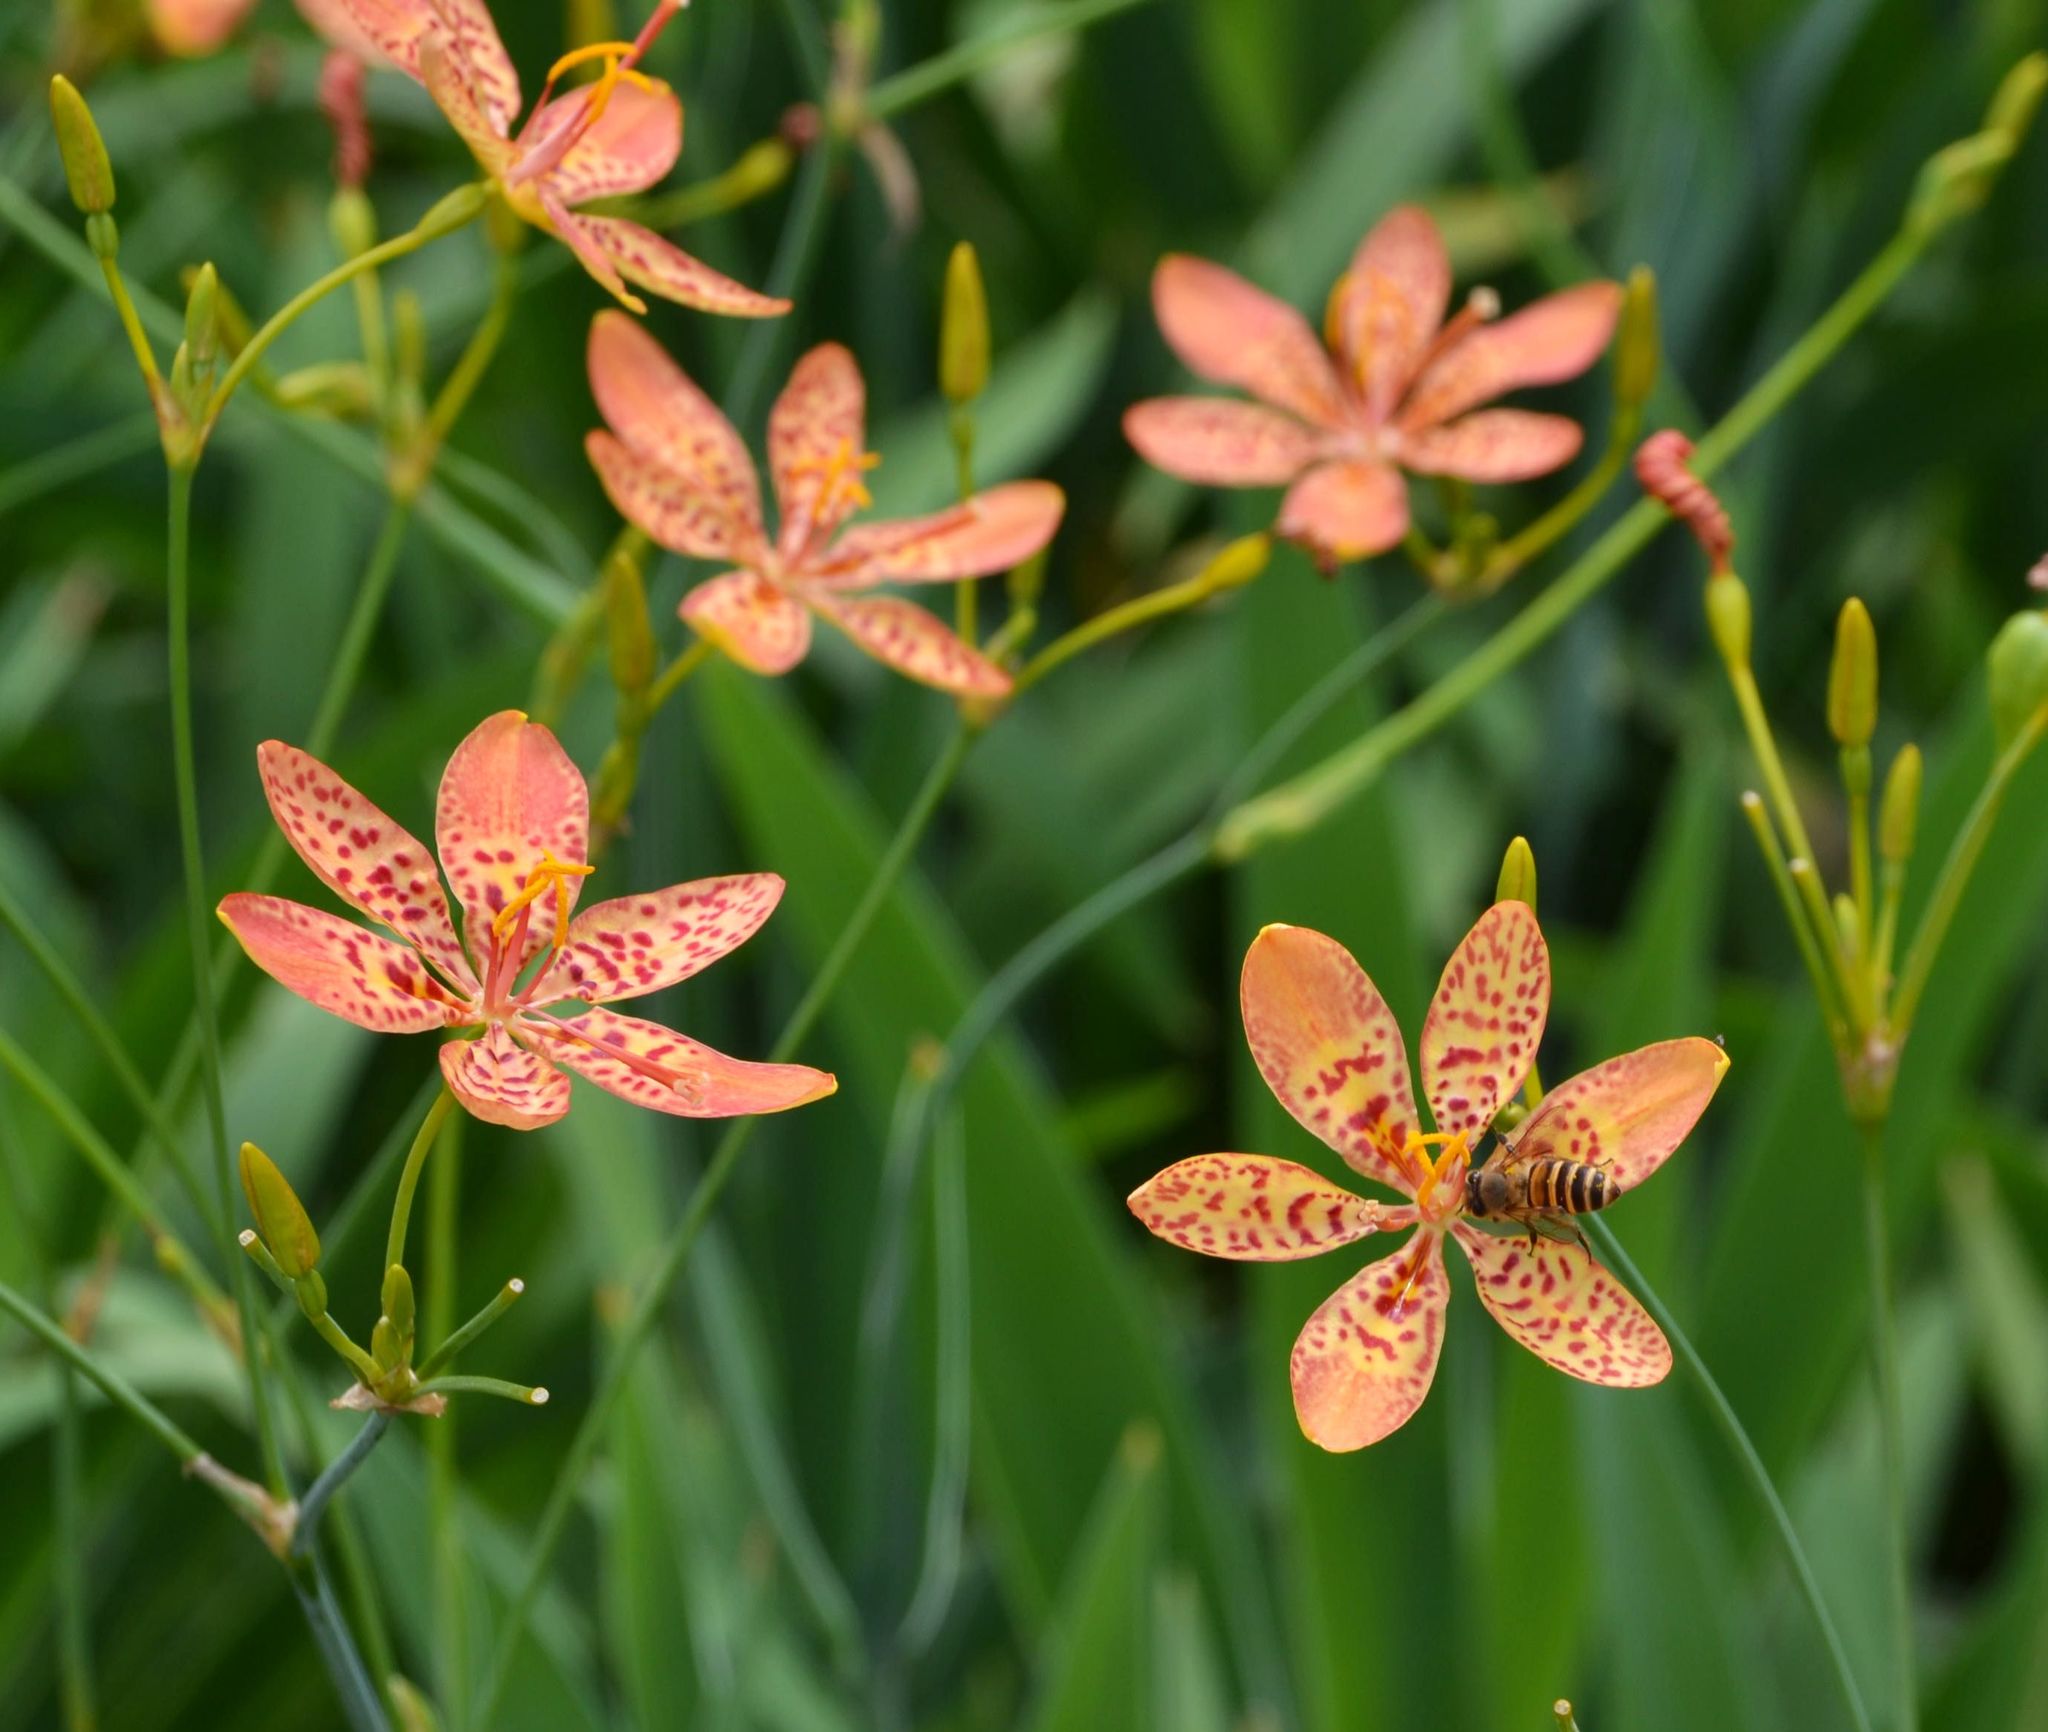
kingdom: Plantae
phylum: Tracheophyta
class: Liliopsida
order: Asparagales
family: Iridaceae
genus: Iris
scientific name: Iris domestica
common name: Belamcanda
